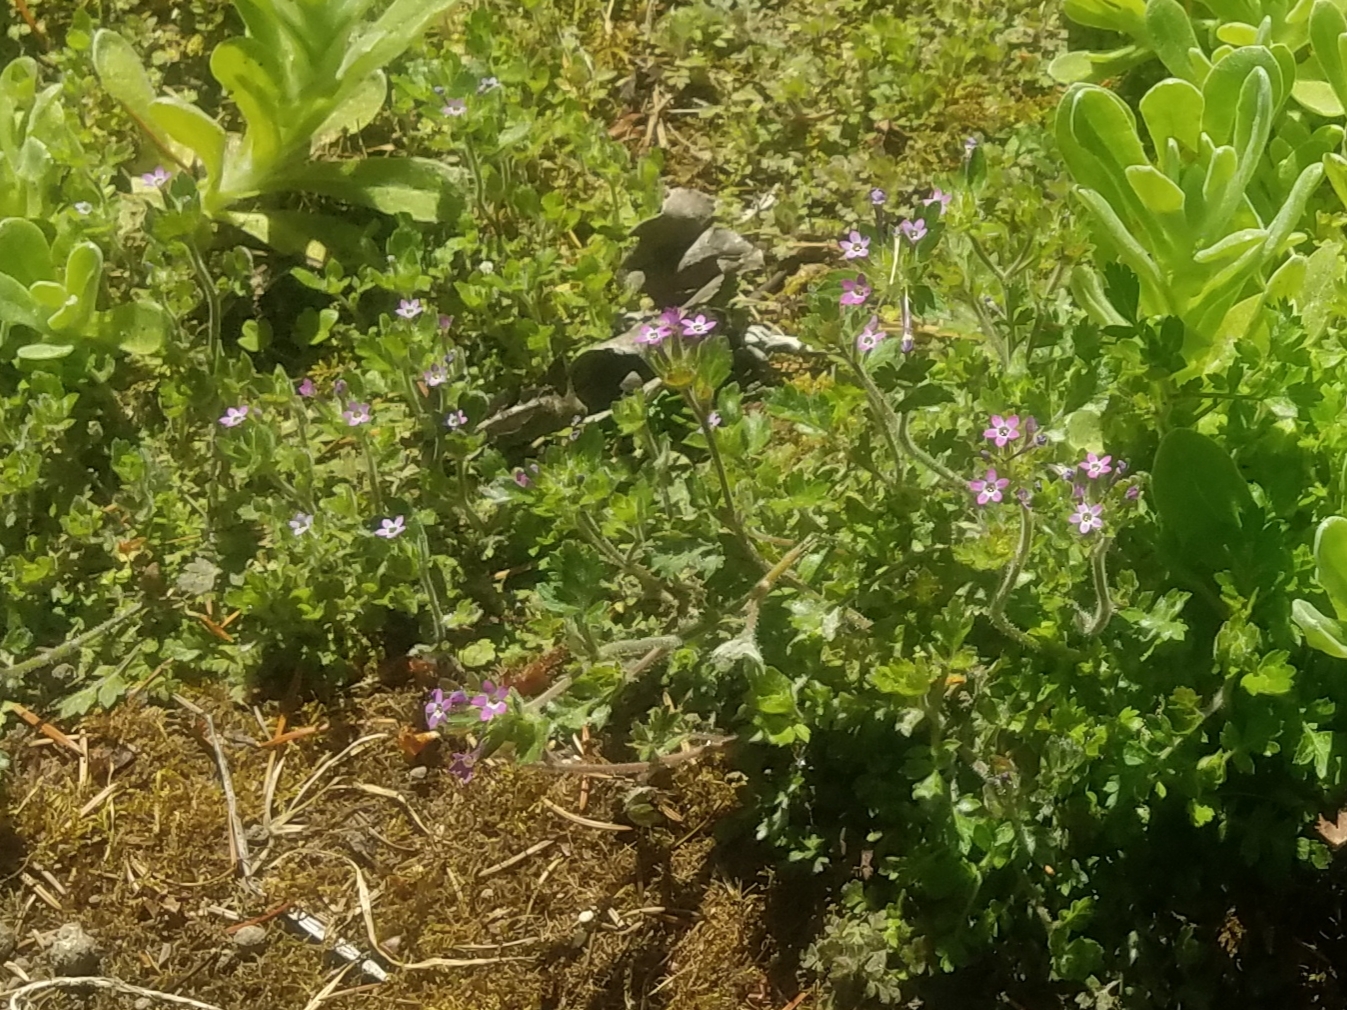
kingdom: Plantae
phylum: Tracheophyta
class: Magnoliopsida
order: Ericales
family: Polemoniaceae
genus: Collomia
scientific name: Collomia heterophylla
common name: Variable-leaved collomia
